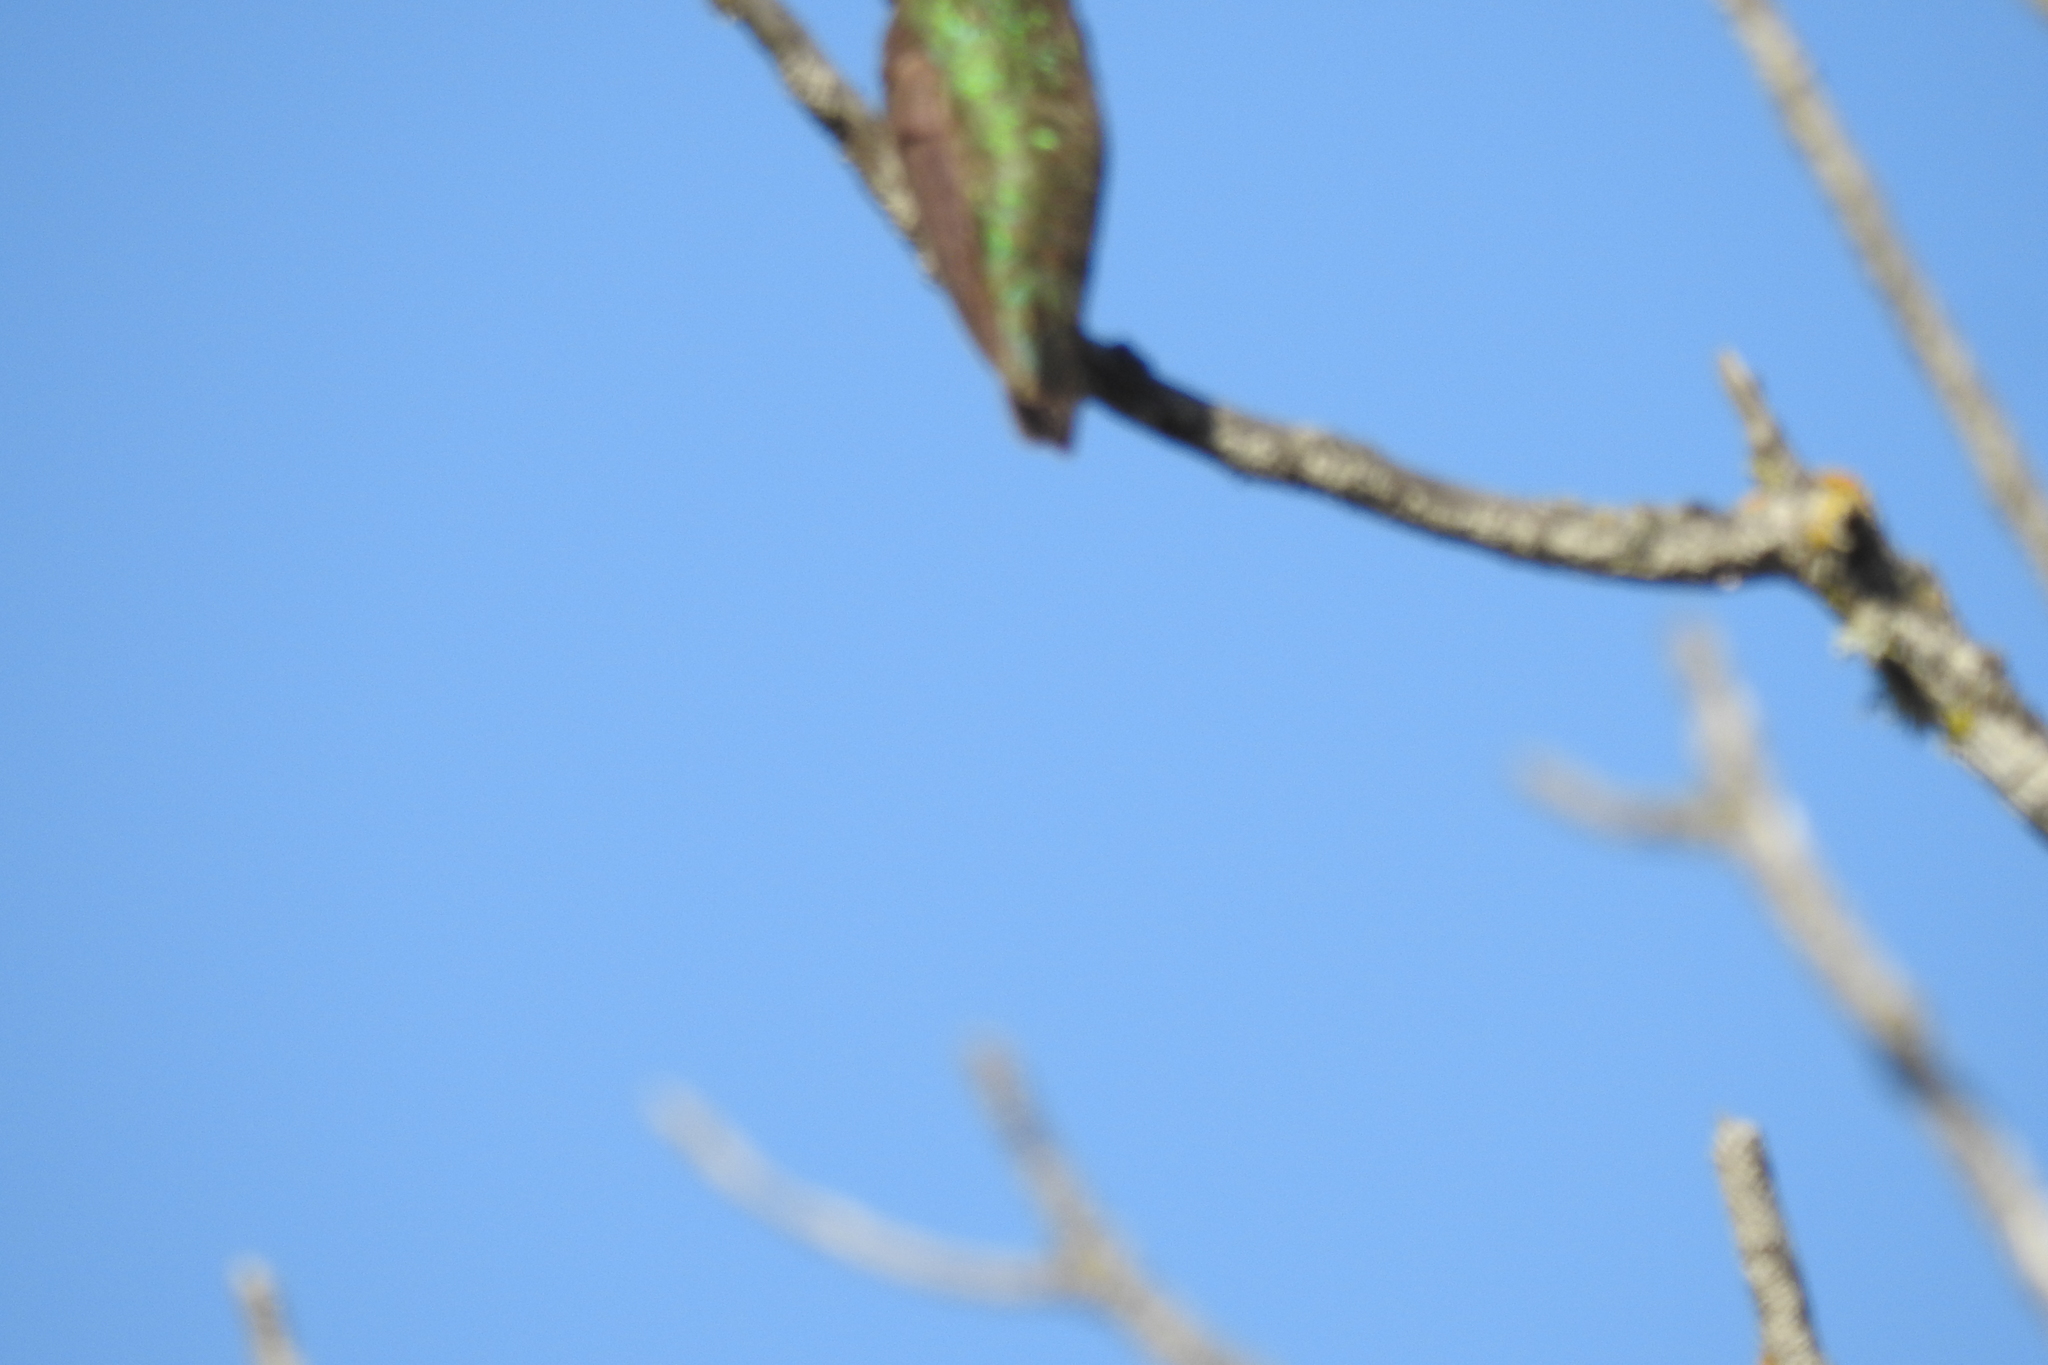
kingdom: Animalia
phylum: Chordata
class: Aves
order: Apodiformes
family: Trochilidae
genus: Calypte
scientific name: Calypte anna
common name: Anna's hummingbird
